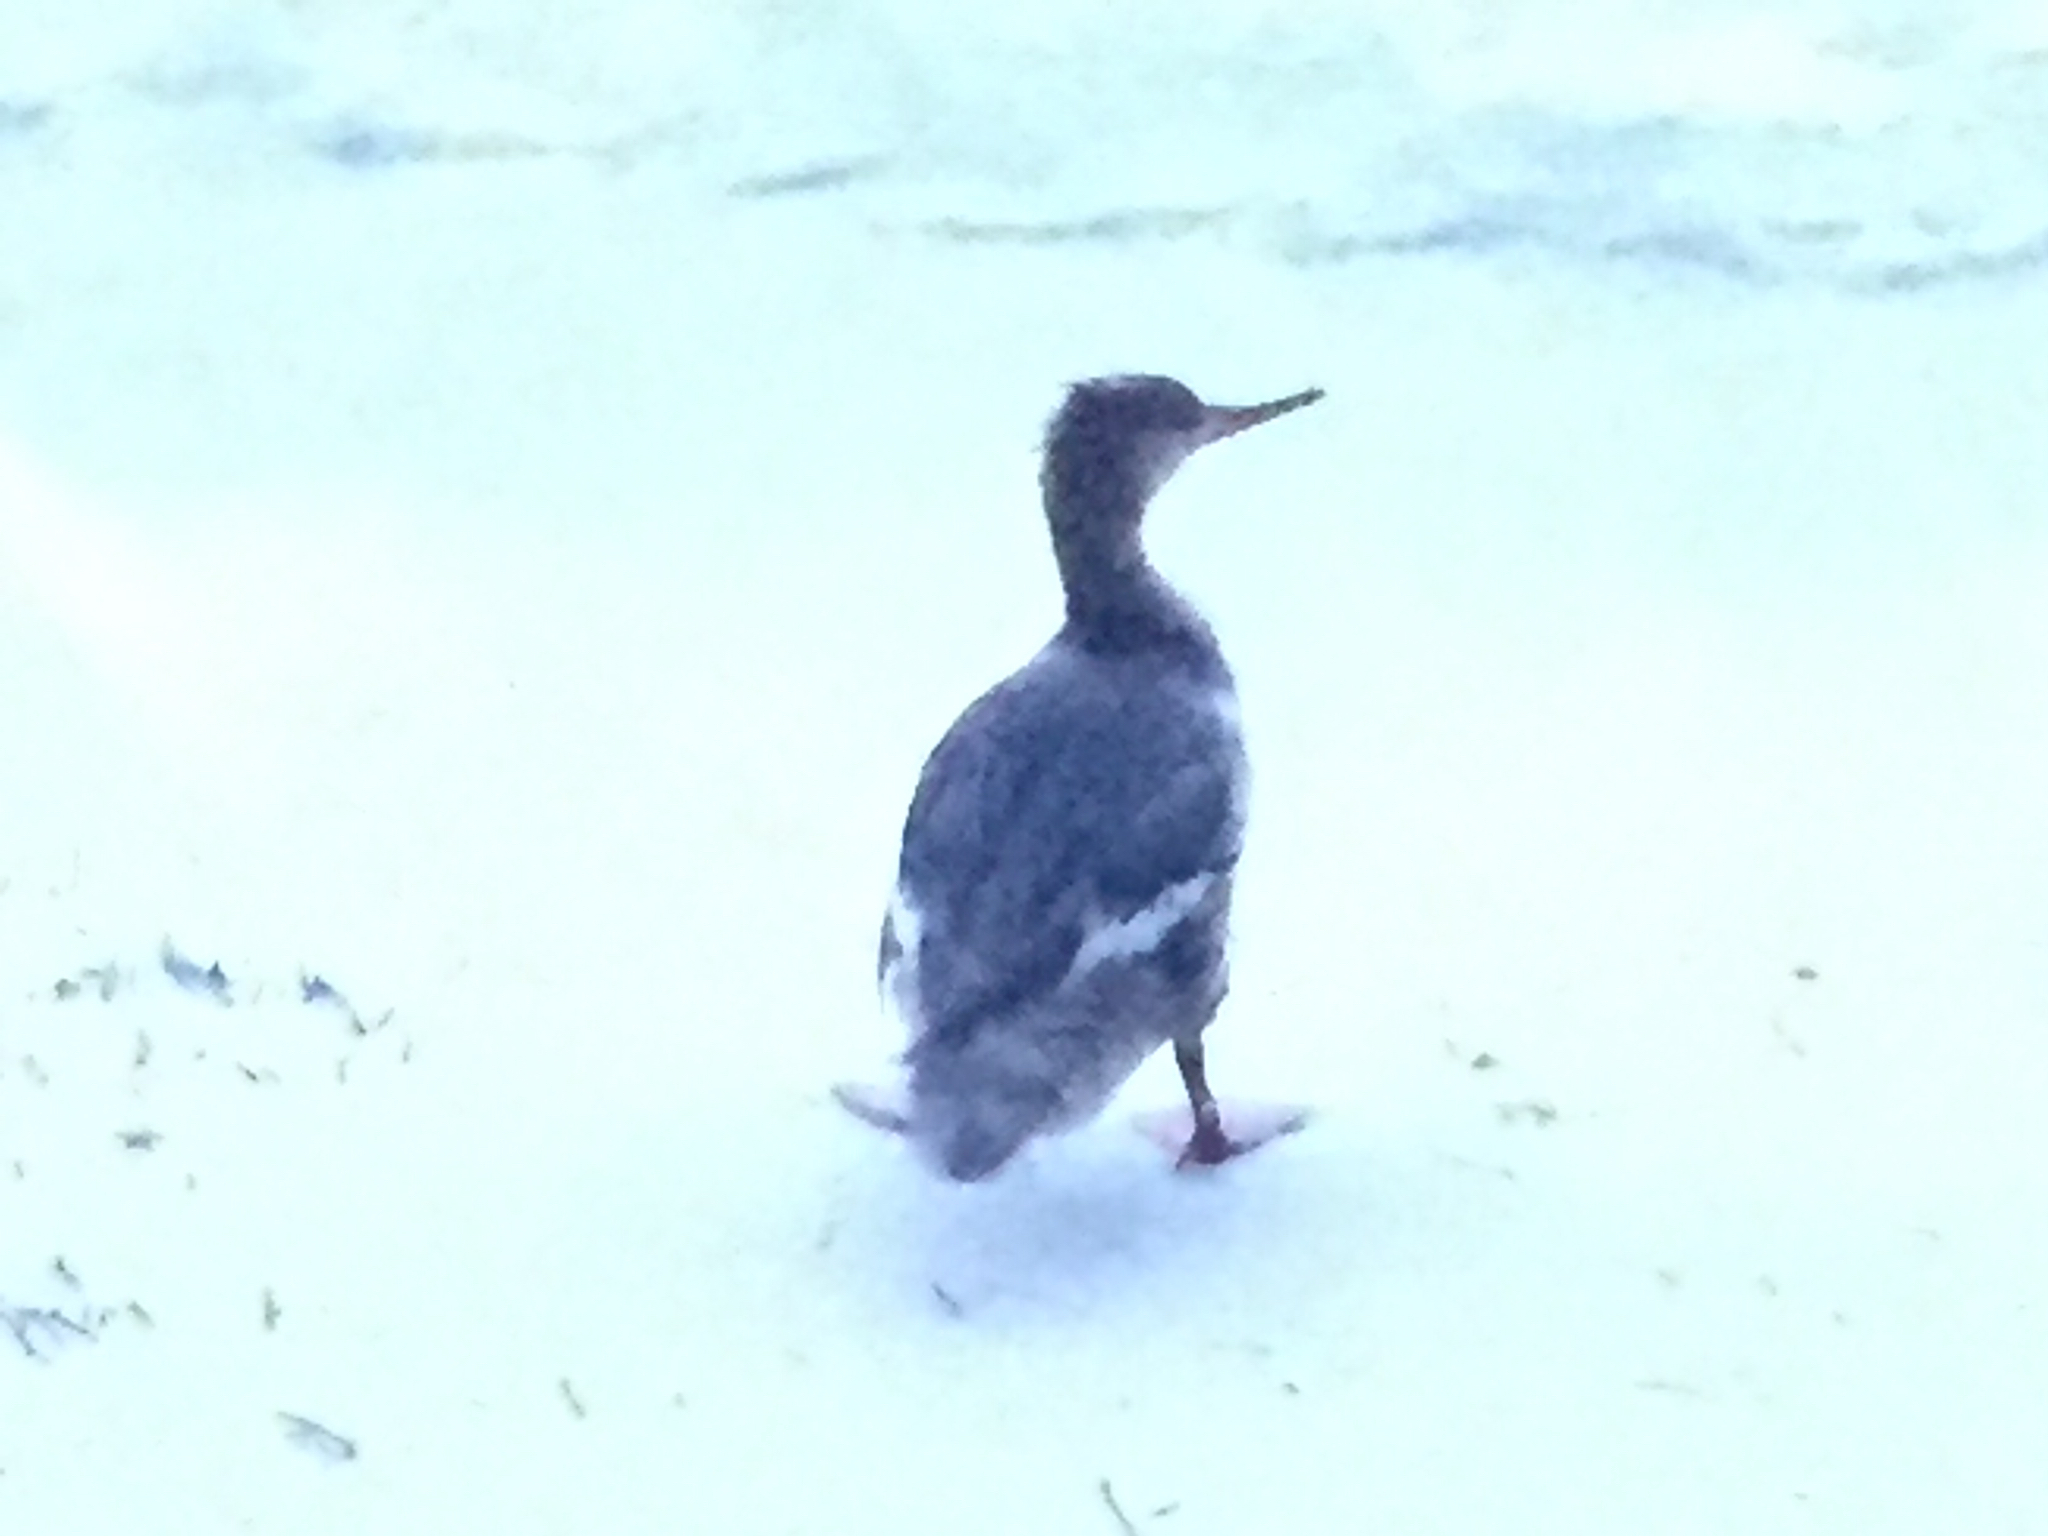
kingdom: Animalia
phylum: Chordata
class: Aves
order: Anseriformes
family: Anatidae
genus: Mergus
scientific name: Mergus serrator
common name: Red-breasted merganser
